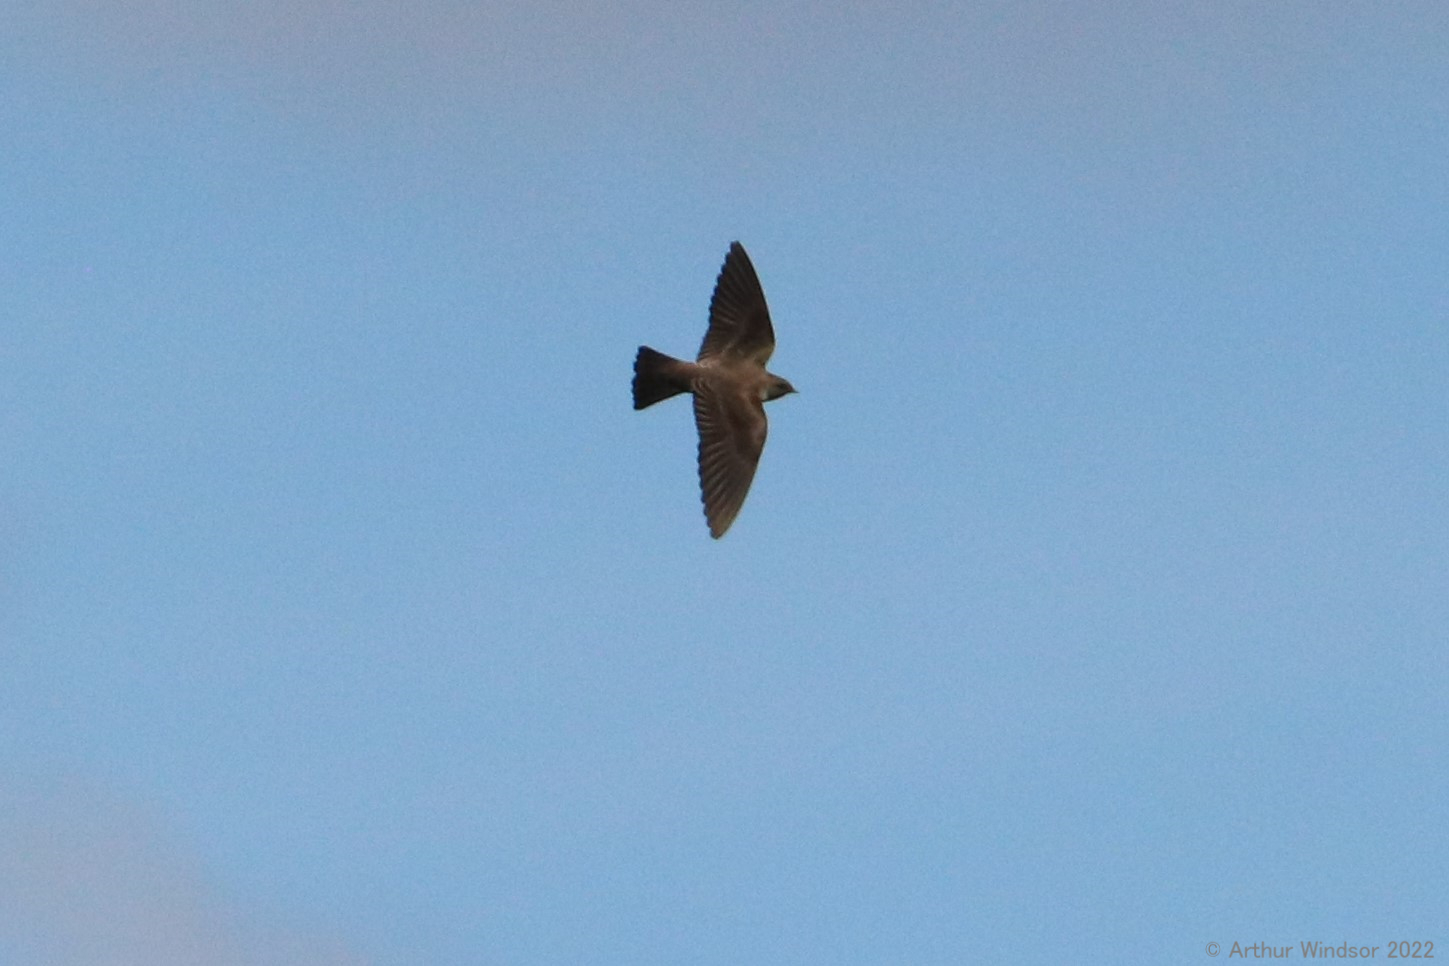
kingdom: Animalia
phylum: Chordata
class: Aves
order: Passeriformes
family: Hirundinidae
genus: Stelgidopteryx
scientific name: Stelgidopteryx serripennis
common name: Northern rough-winged swallow
